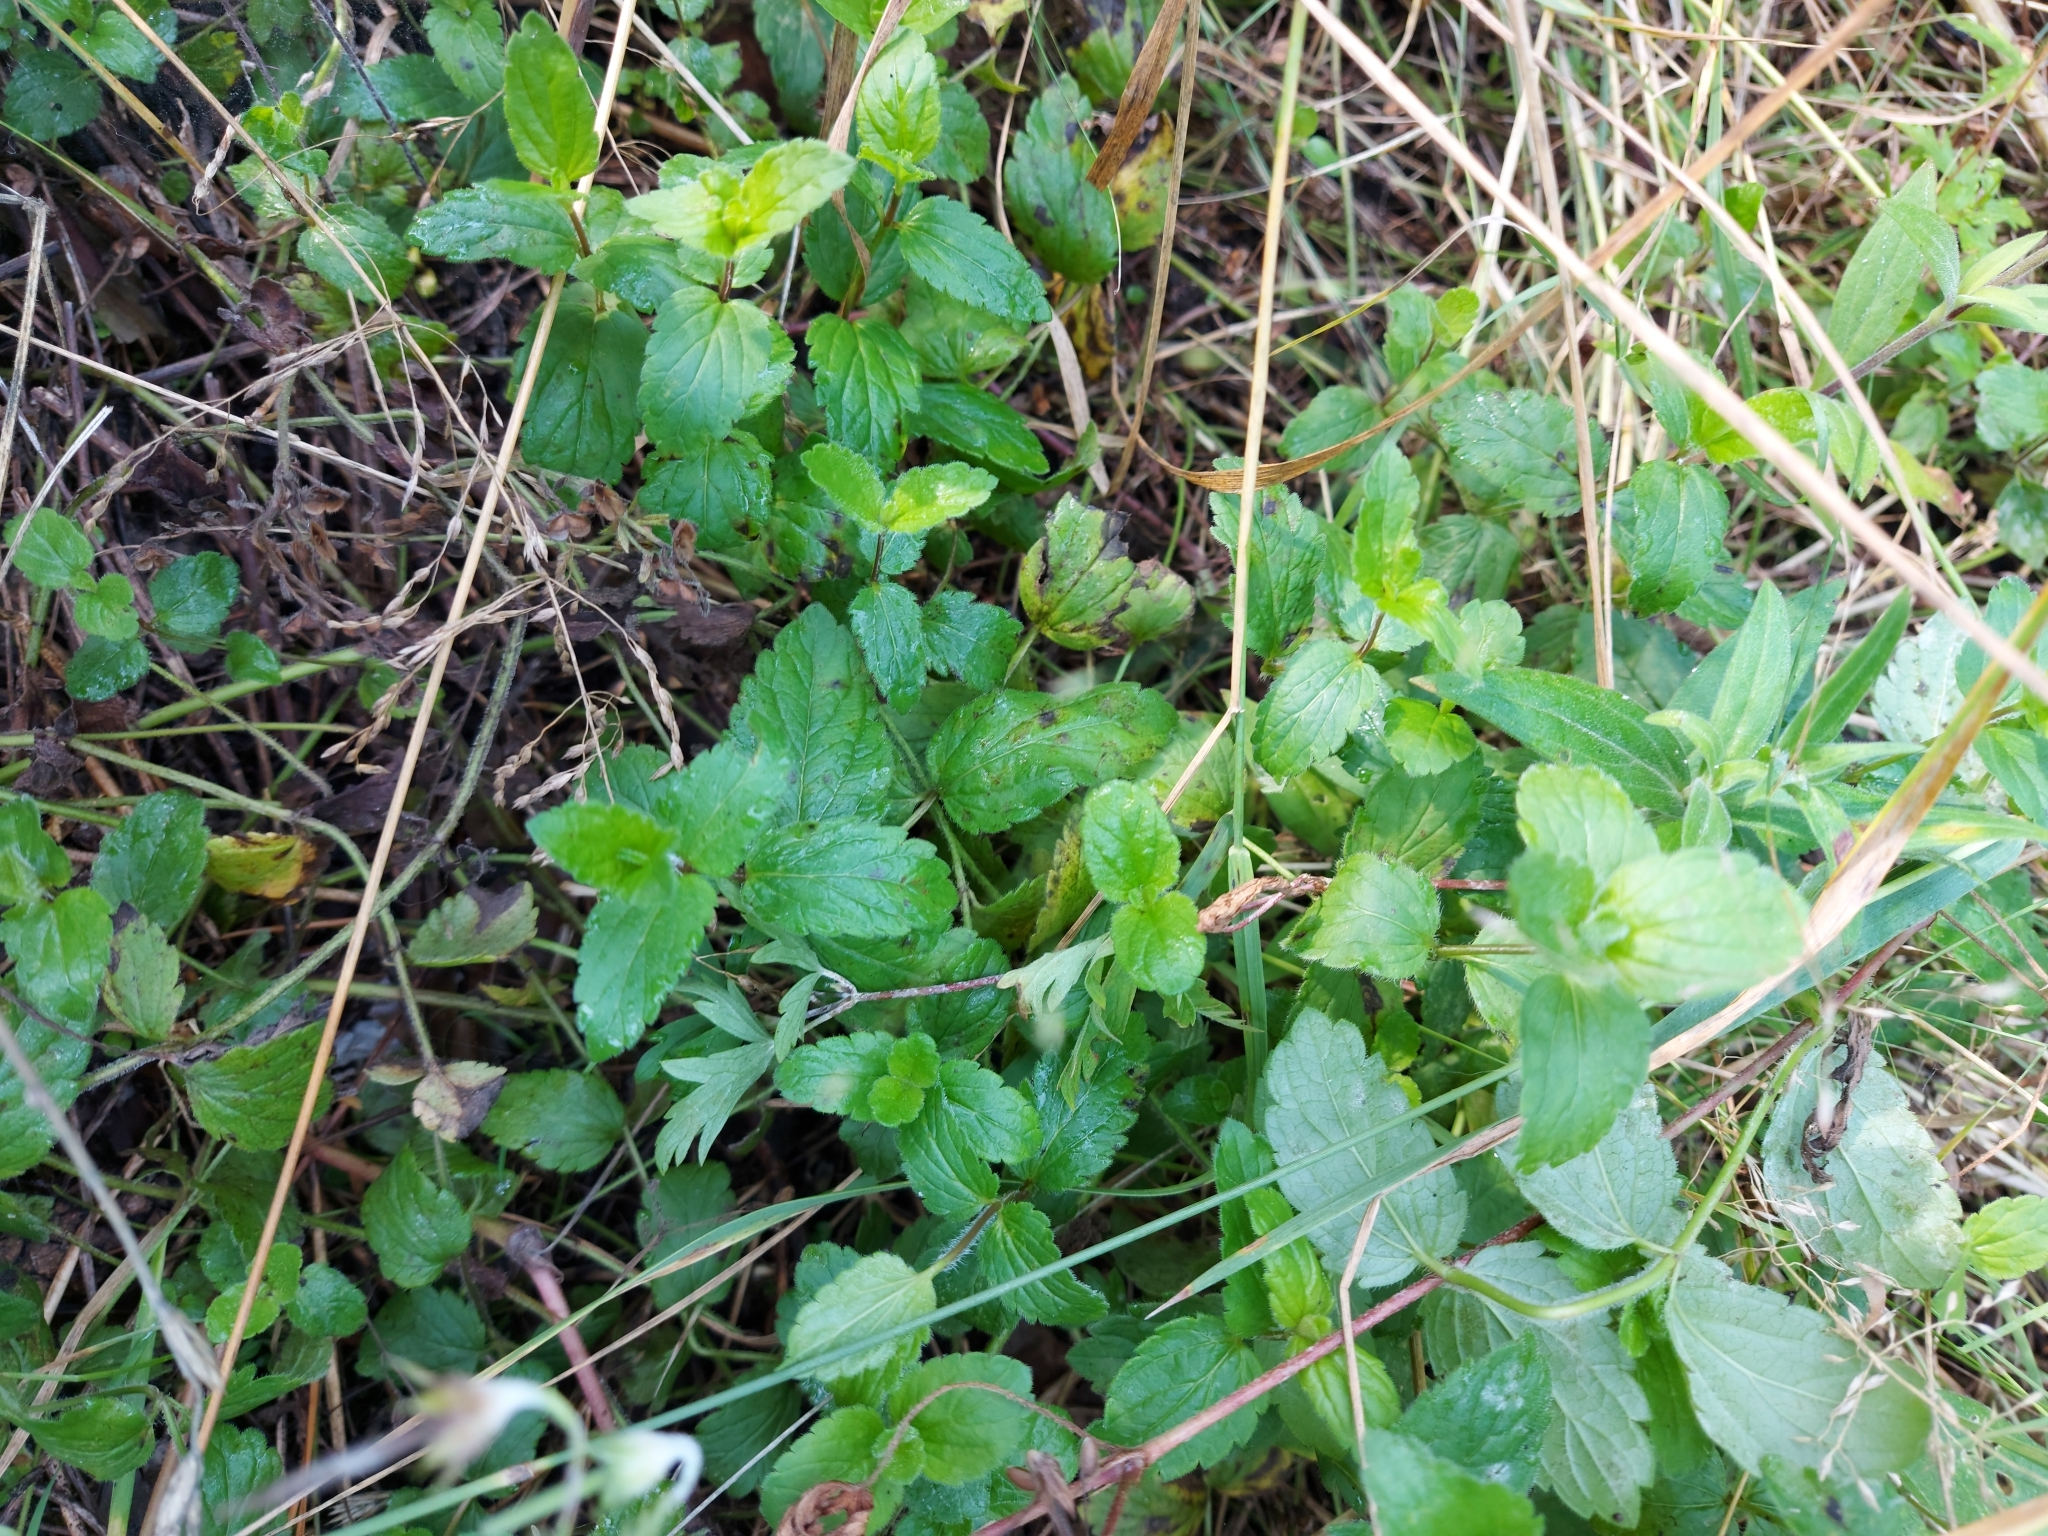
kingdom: Plantae
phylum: Tracheophyta
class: Magnoliopsida
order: Lamiales
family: Plantaginaceae
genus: Veronica
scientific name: Veronica chamaedrys
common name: Germander speedwell
